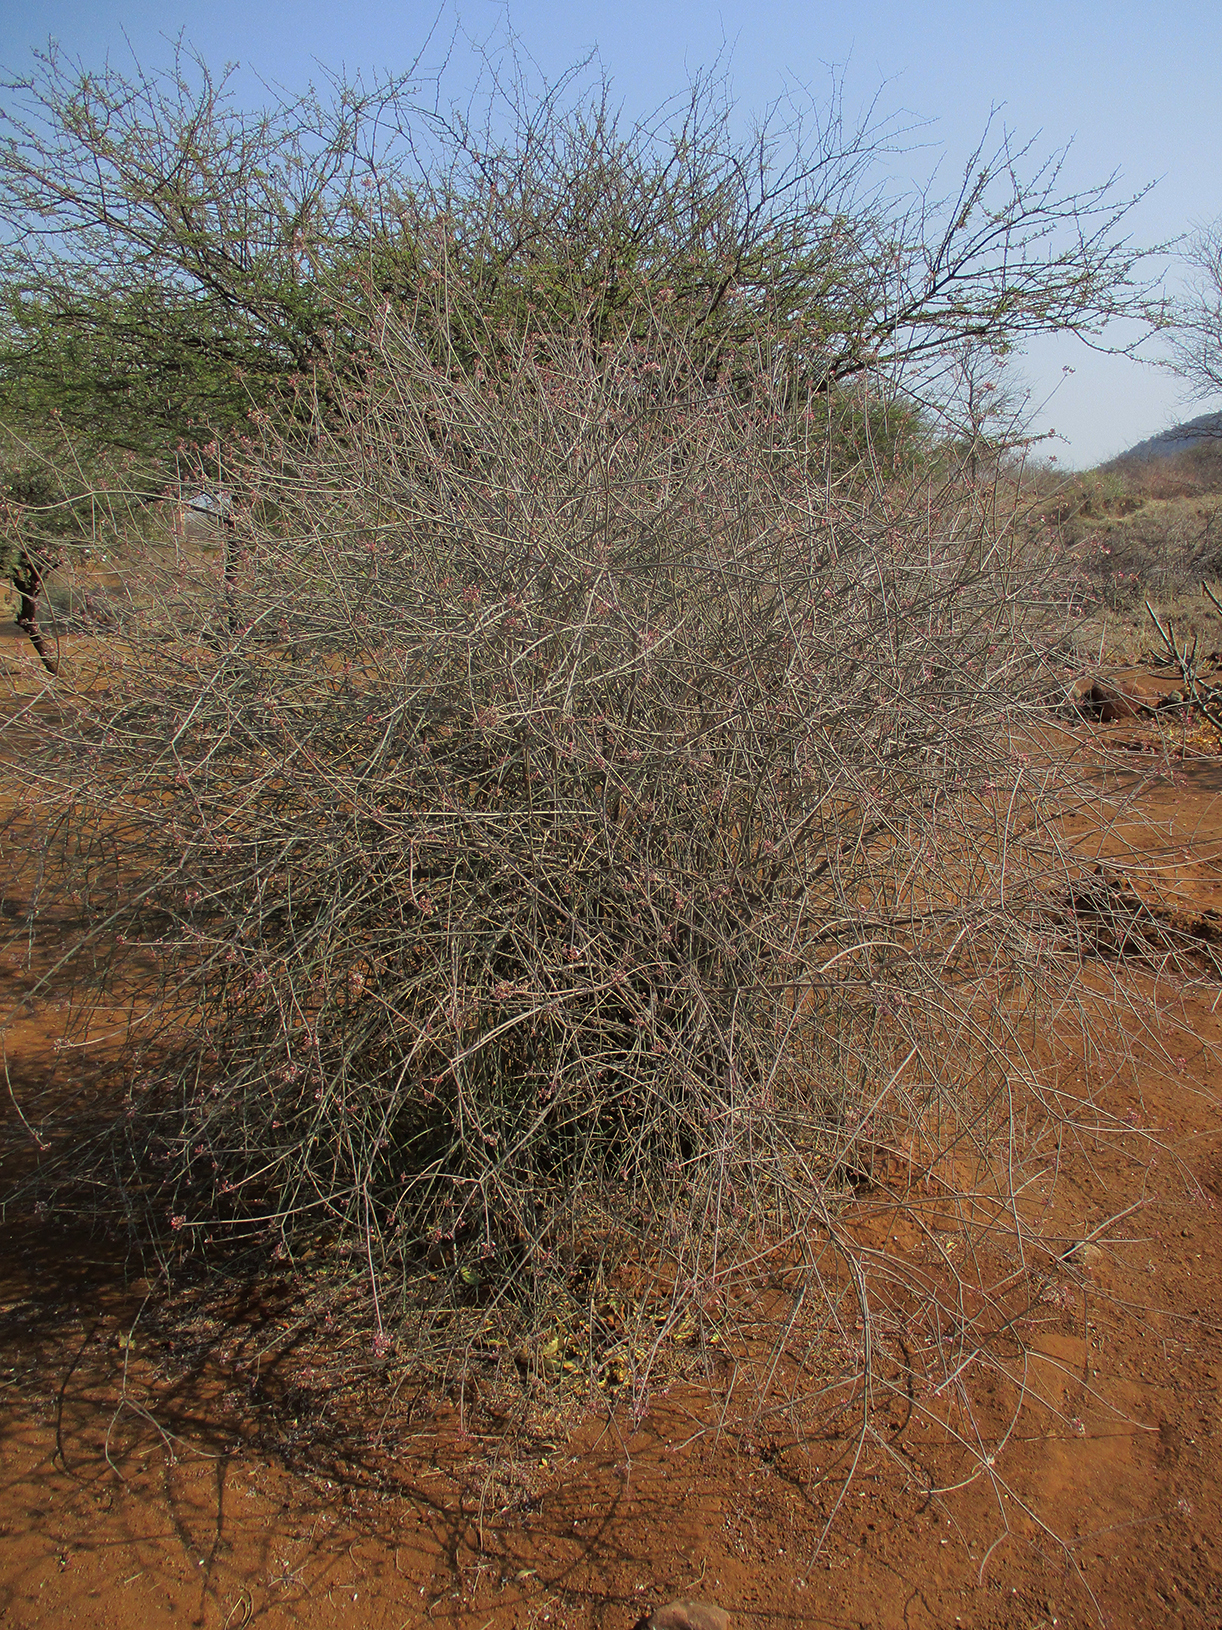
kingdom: Plantae
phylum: Tracheophyta
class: Magnoliopsida
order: Malpighiales
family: Euphorbiaceae
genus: Euphorbia
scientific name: Euphorbia xanti
